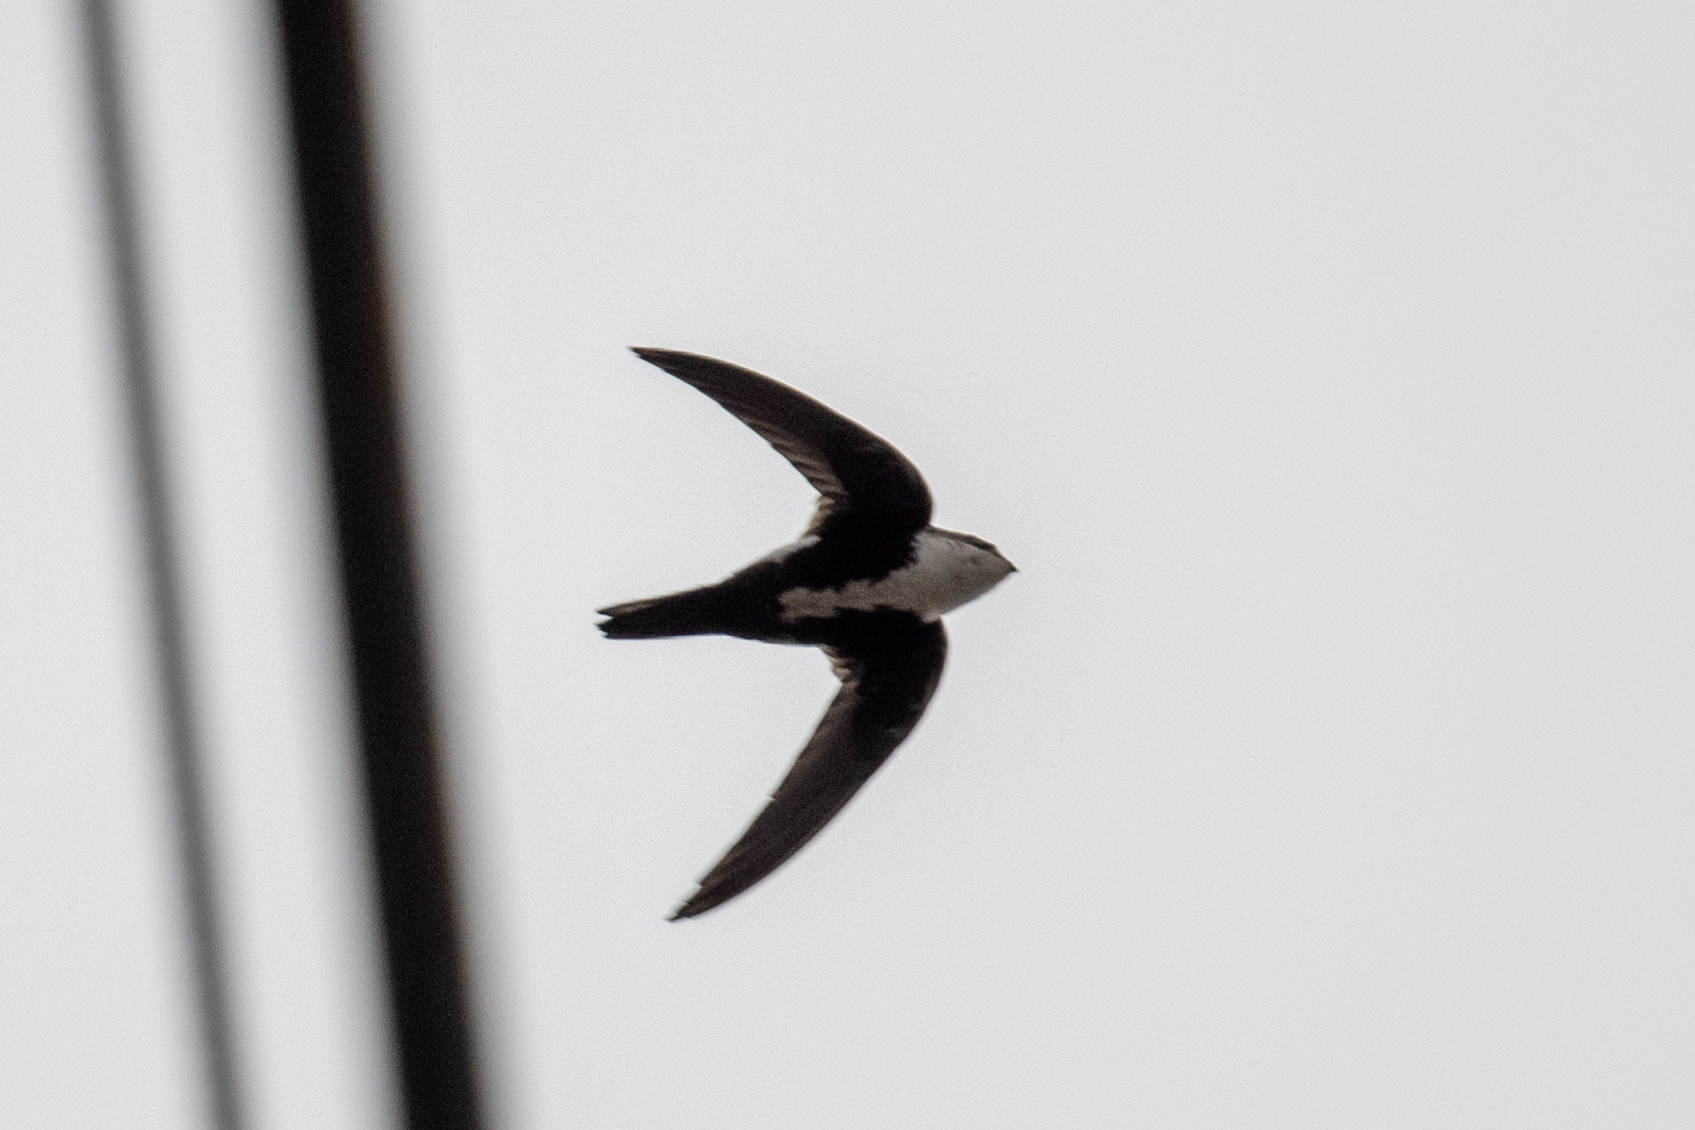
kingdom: Animalia
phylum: Chordata
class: Aves
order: Apodiformes
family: Apodidae
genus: Aeronautes
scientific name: Aeronautes saxatalis
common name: White-throated swift
